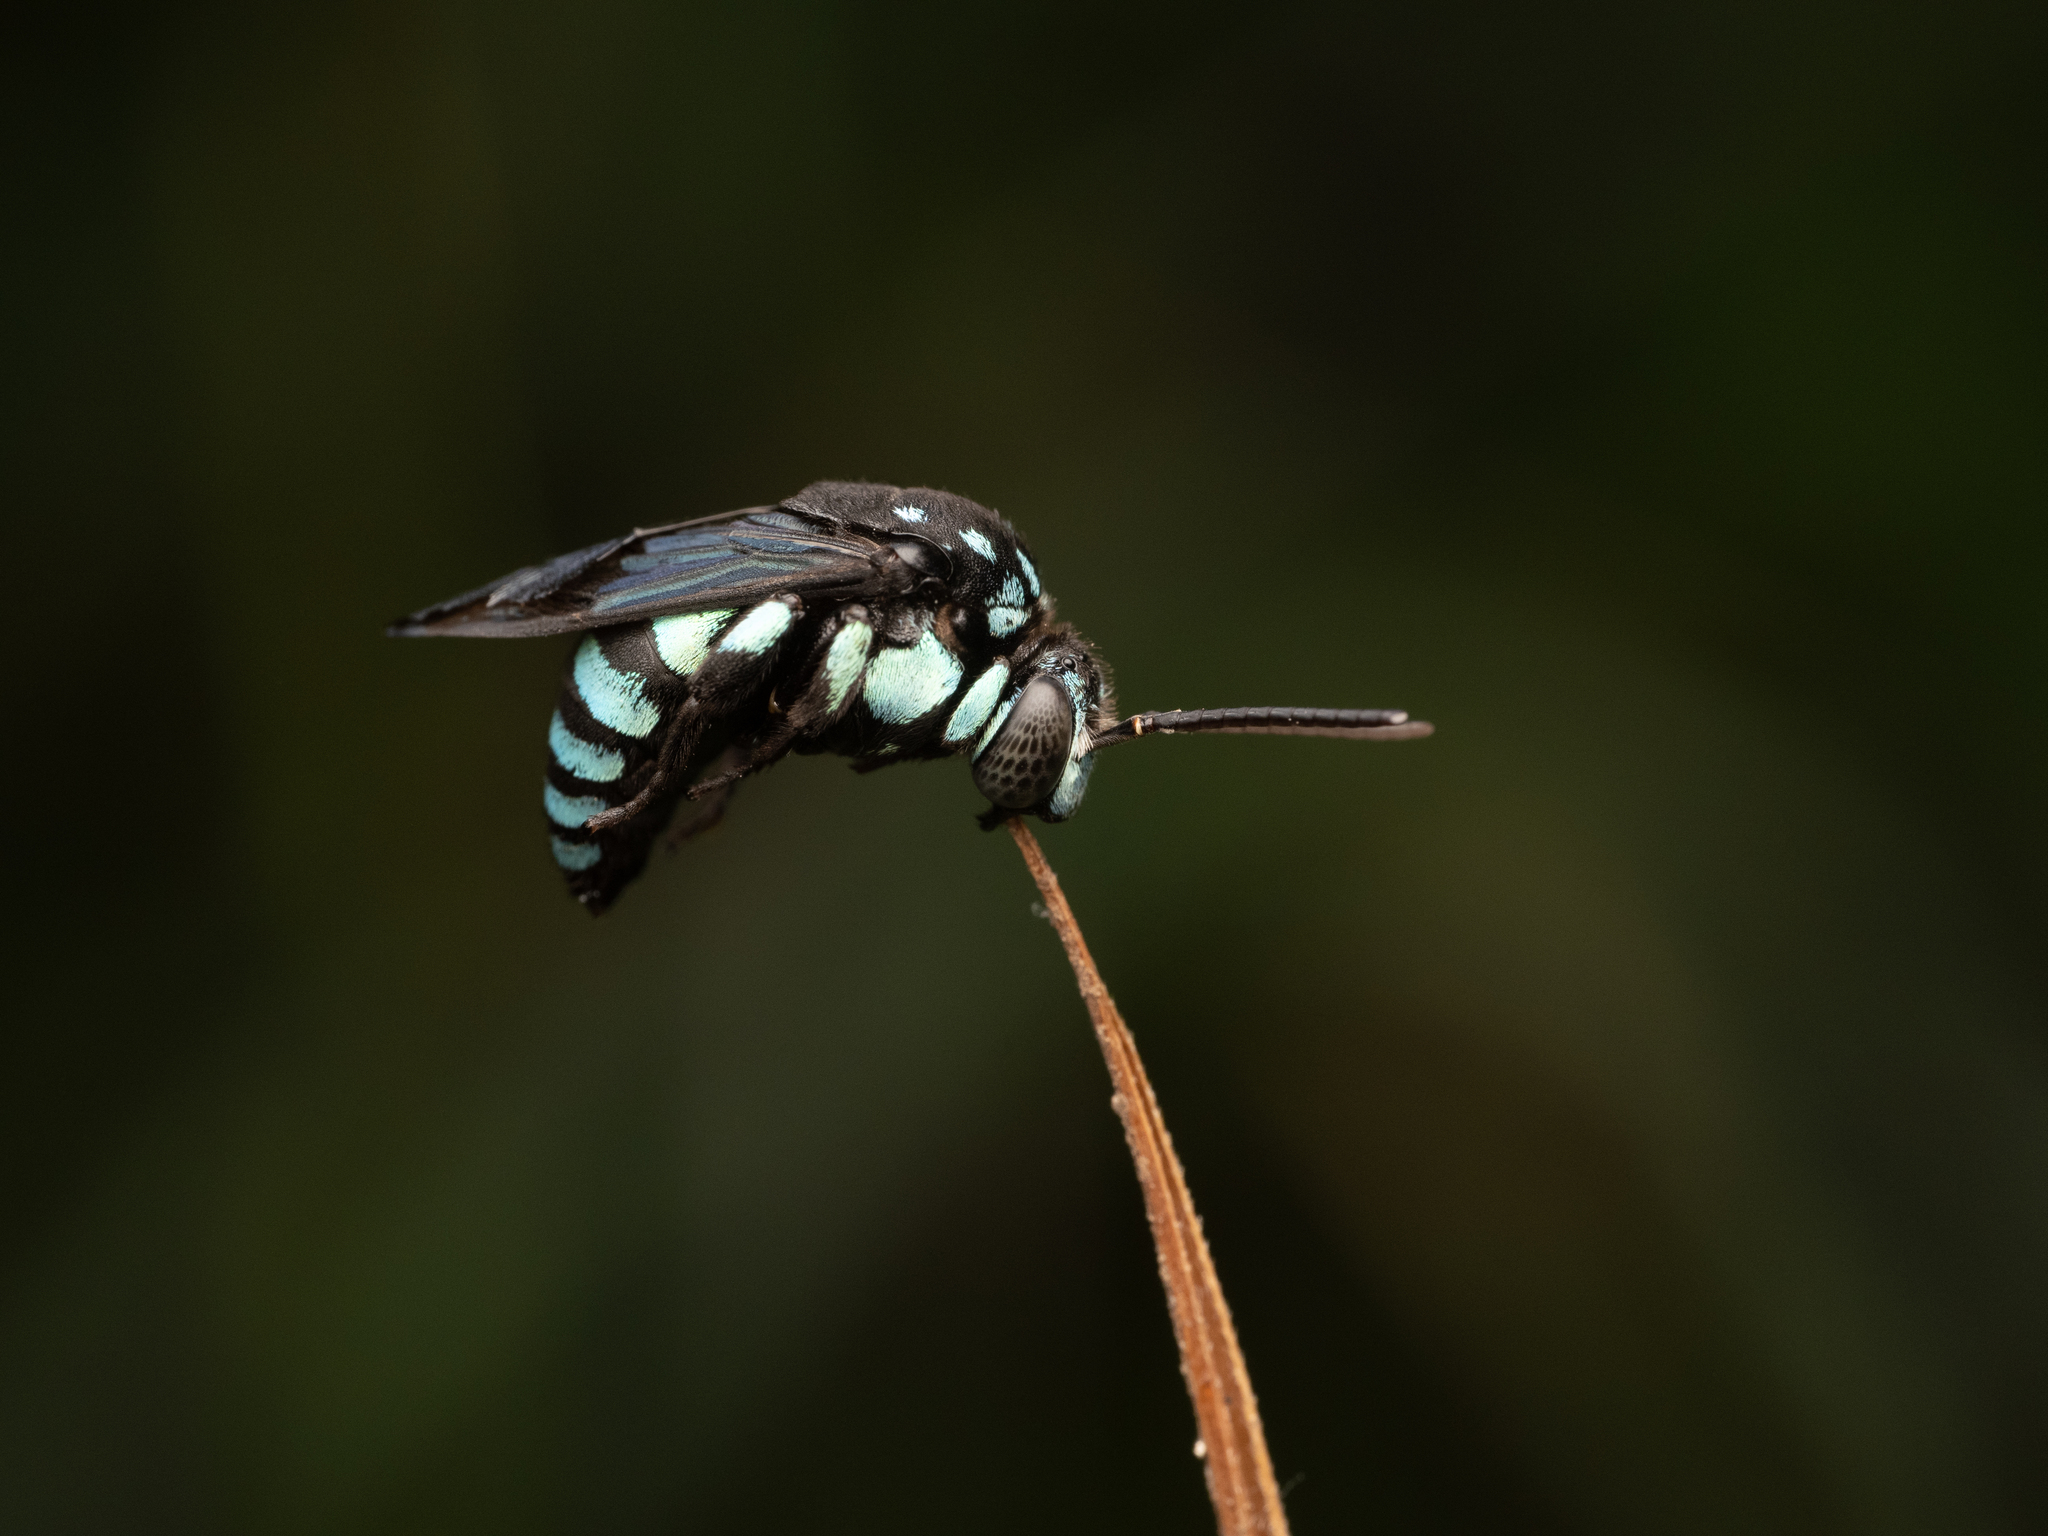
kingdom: Animalia
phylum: Arthropoda
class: Insecta
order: Hymenoptera
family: Apidae
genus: Thyreus
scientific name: Thyreus nitidulus
